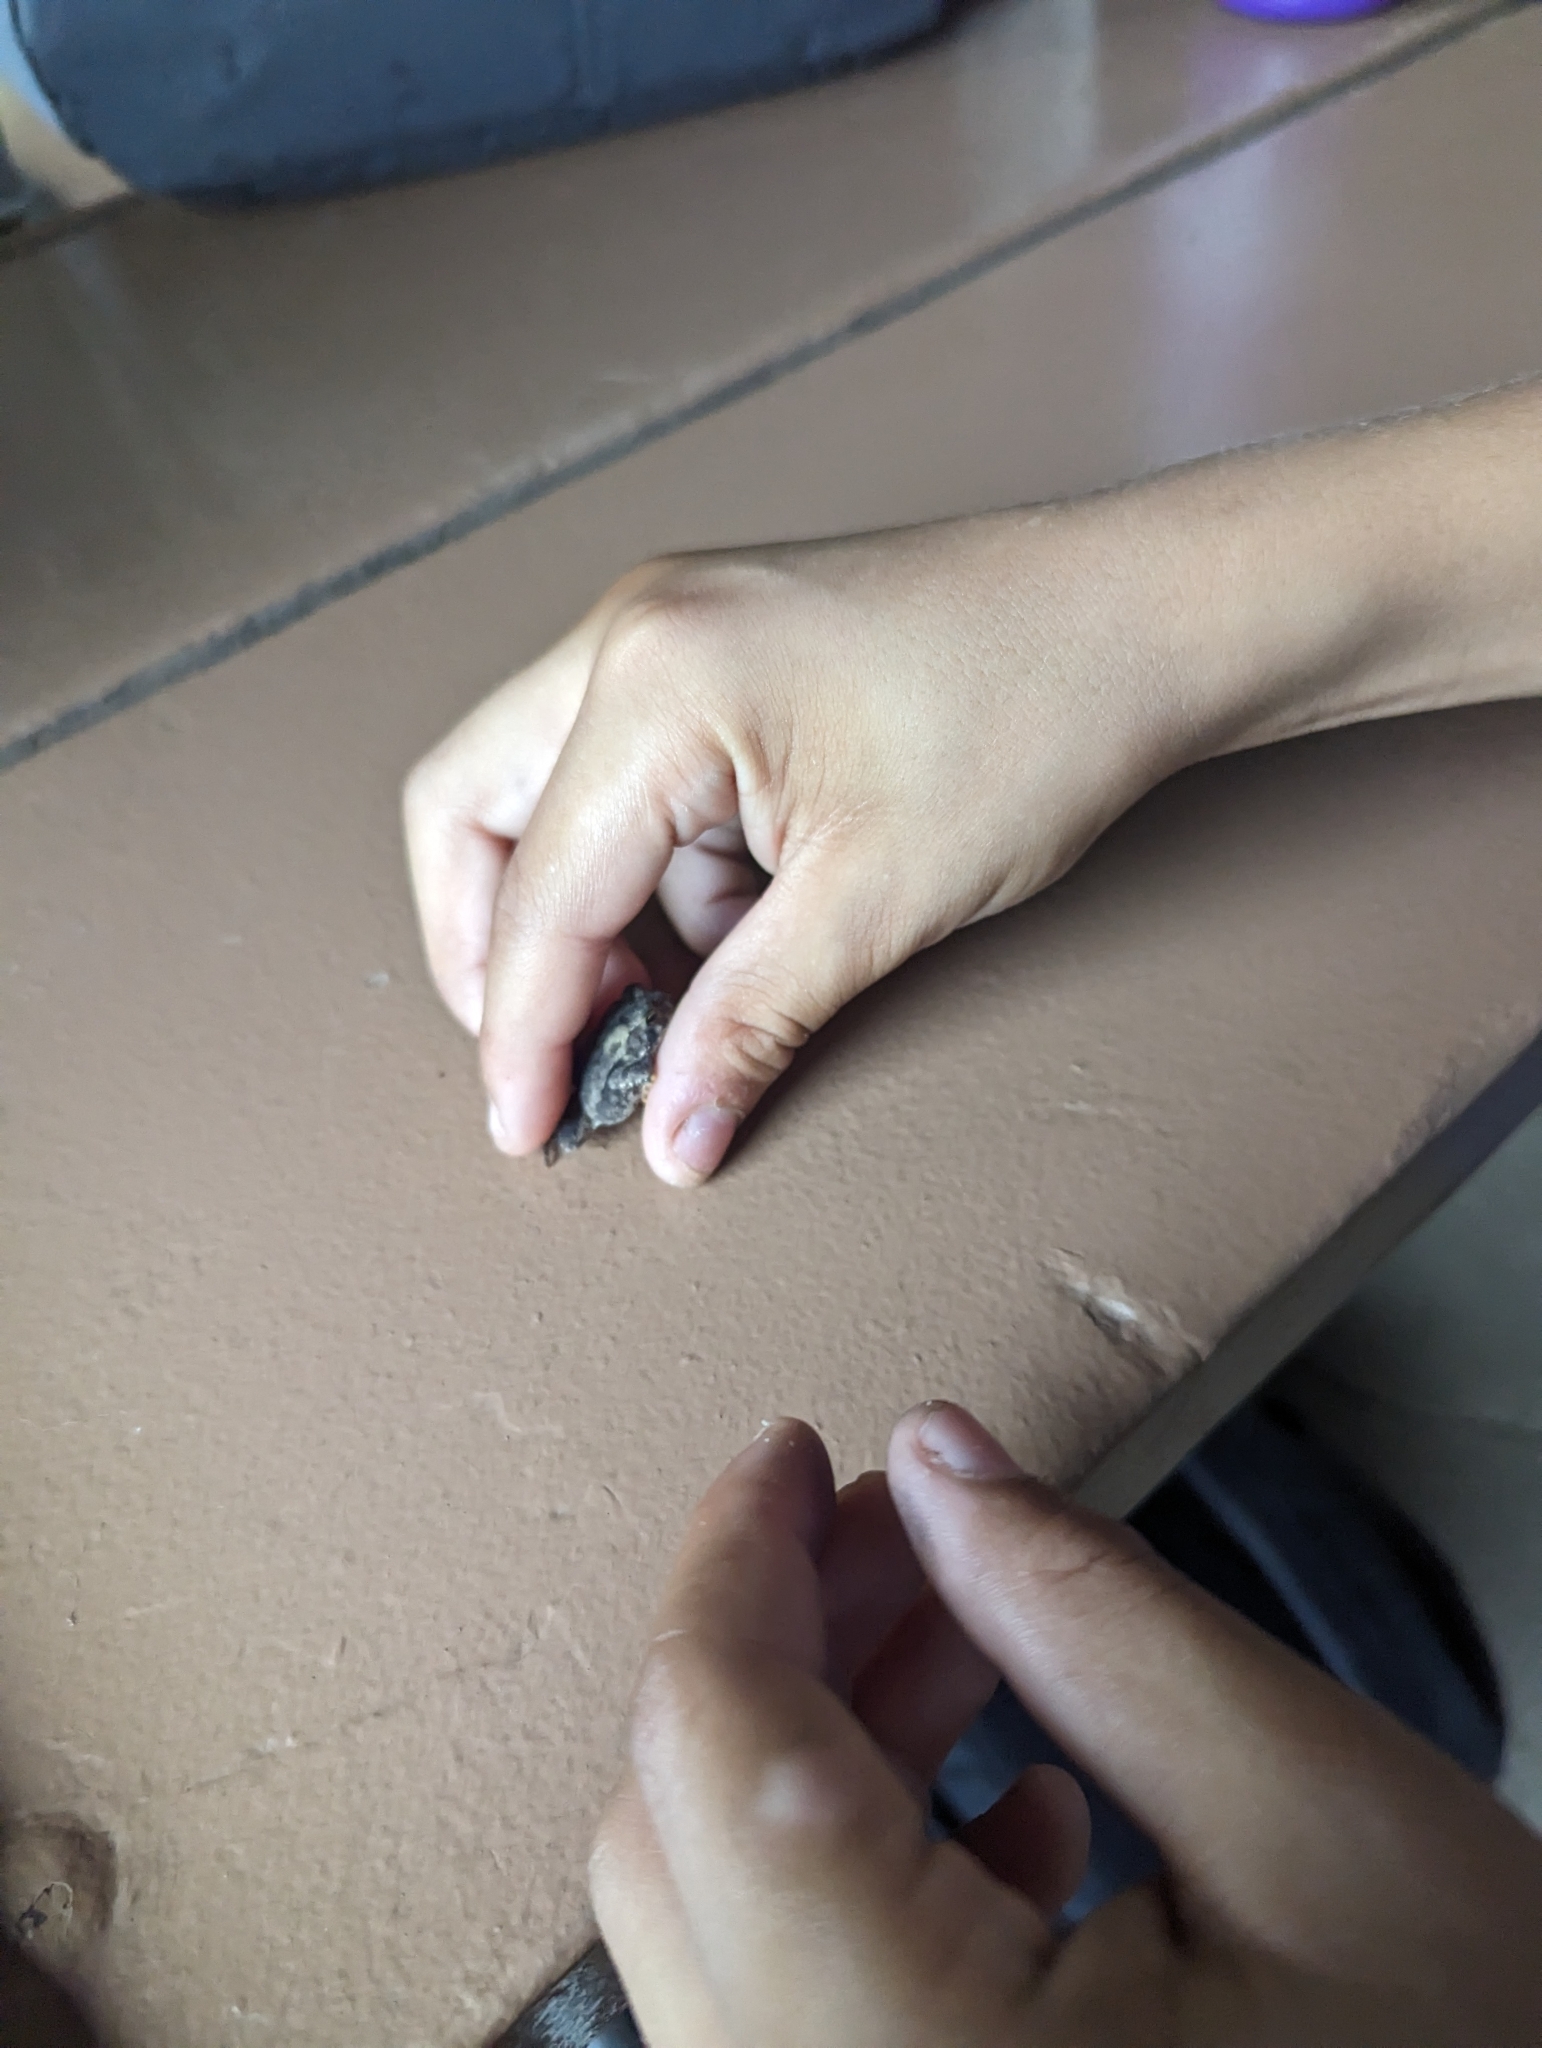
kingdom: Animalia
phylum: Chordata
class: Amphibia
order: Anura
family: Bufonidae
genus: Anaxyrus
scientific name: Anaxyrus americanus
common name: American toad
